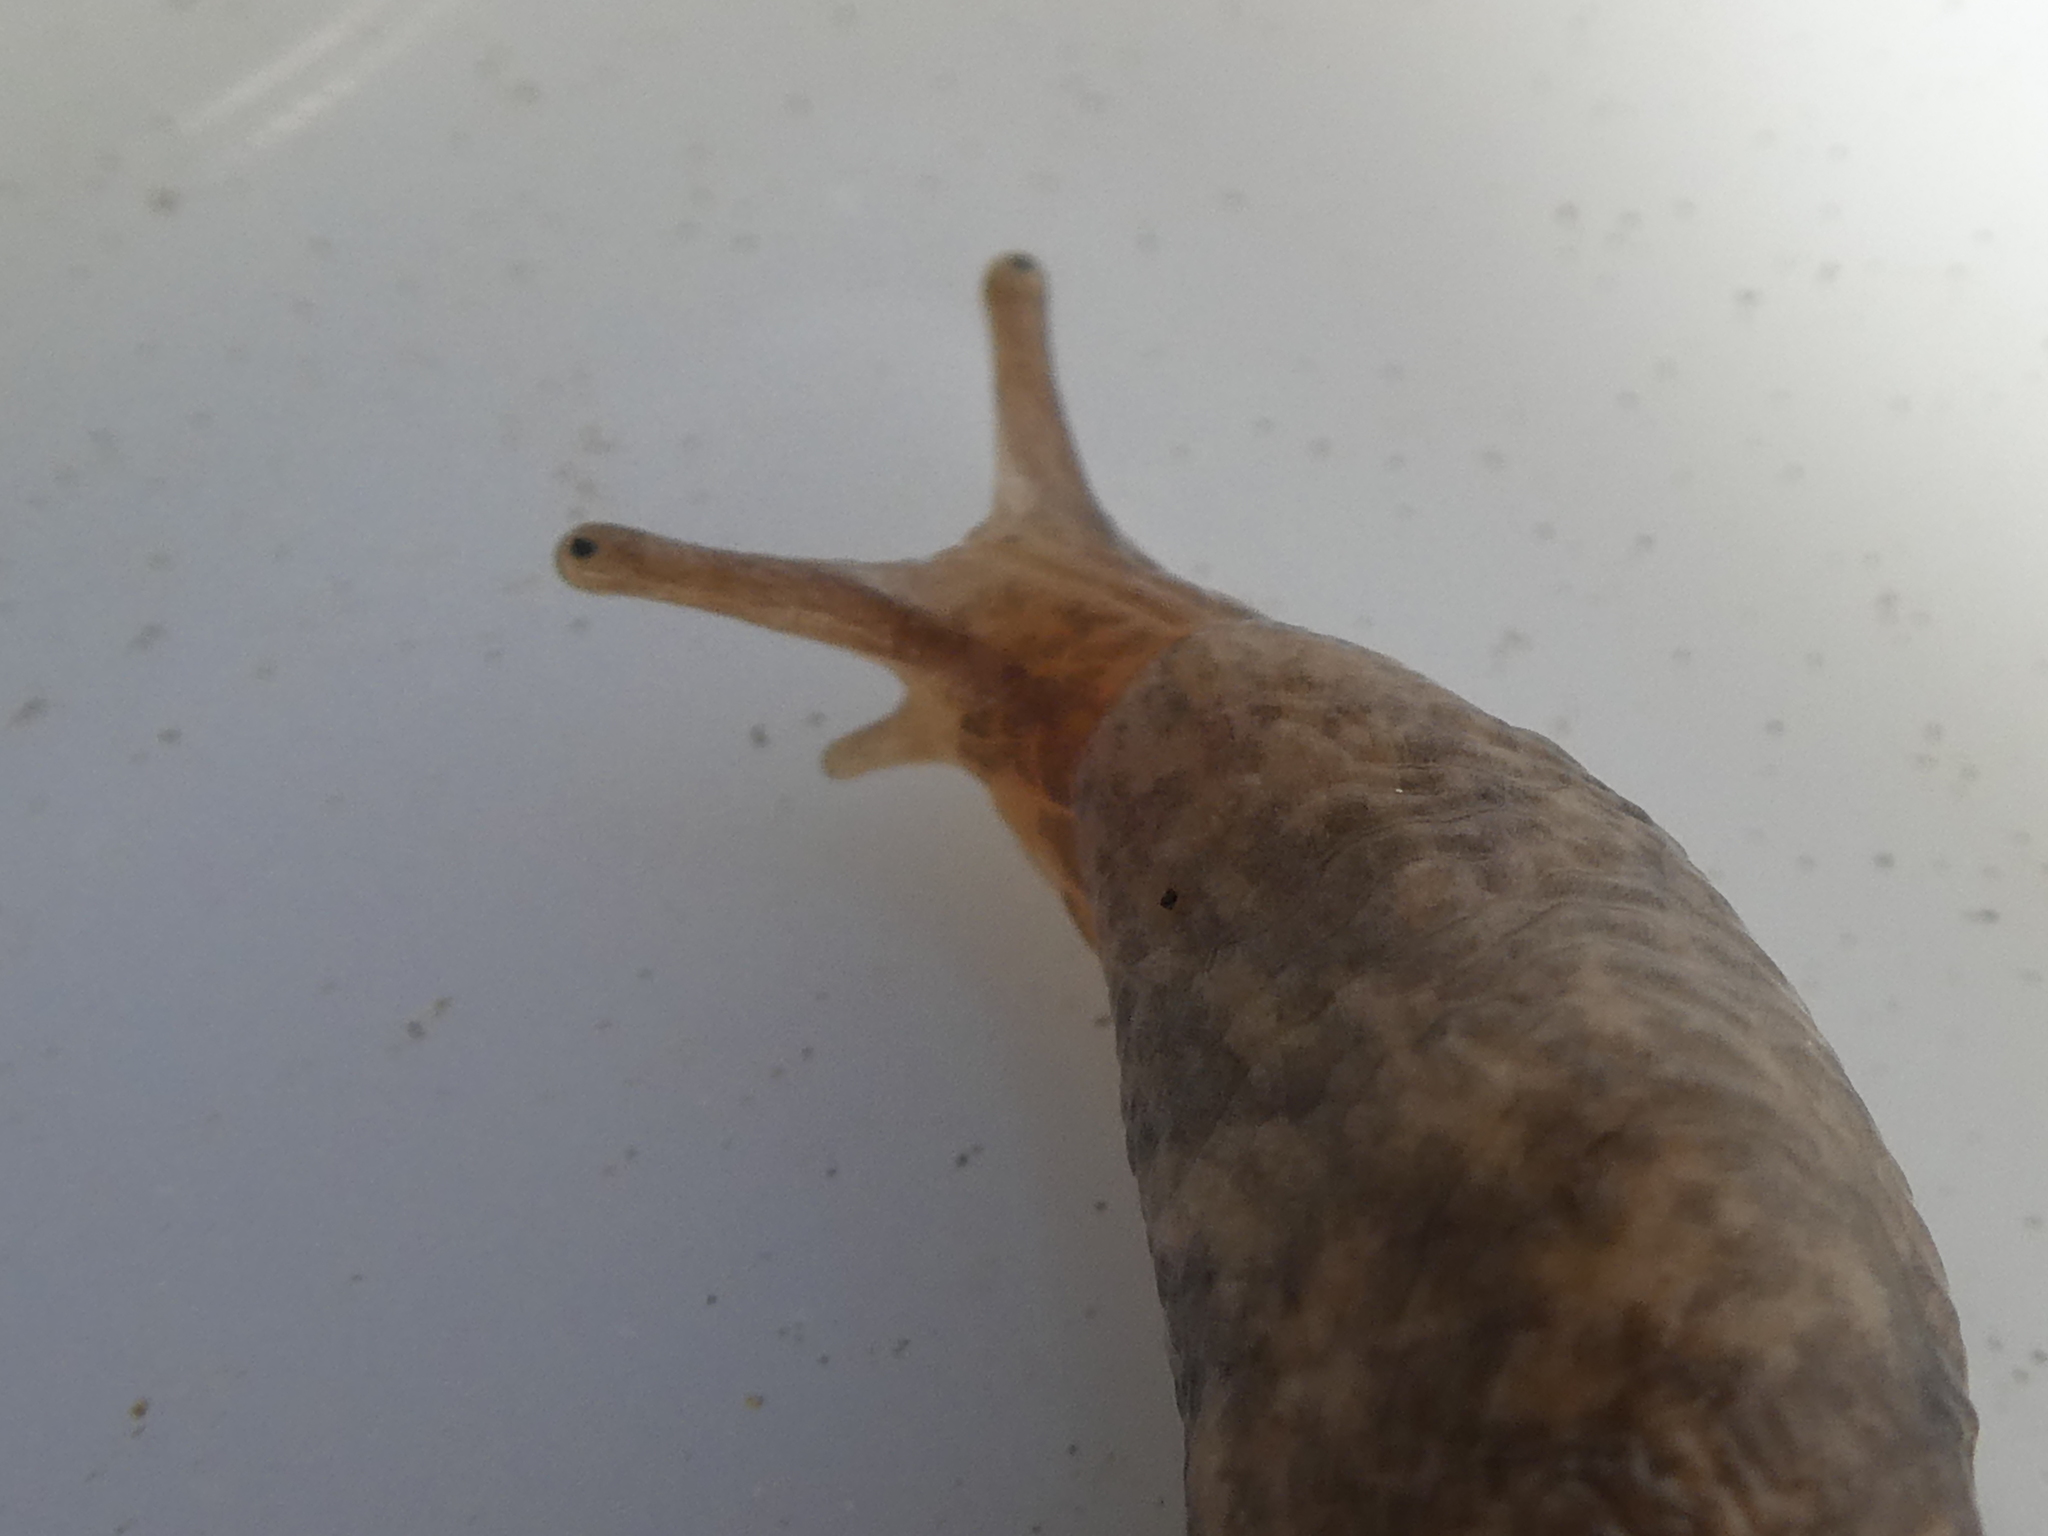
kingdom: Animalia
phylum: Mollusca
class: Gastropoda
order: Stylommatophora
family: Agriolimacidae
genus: Deroceras
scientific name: Deroceras reticulatum
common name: Gray field slug
